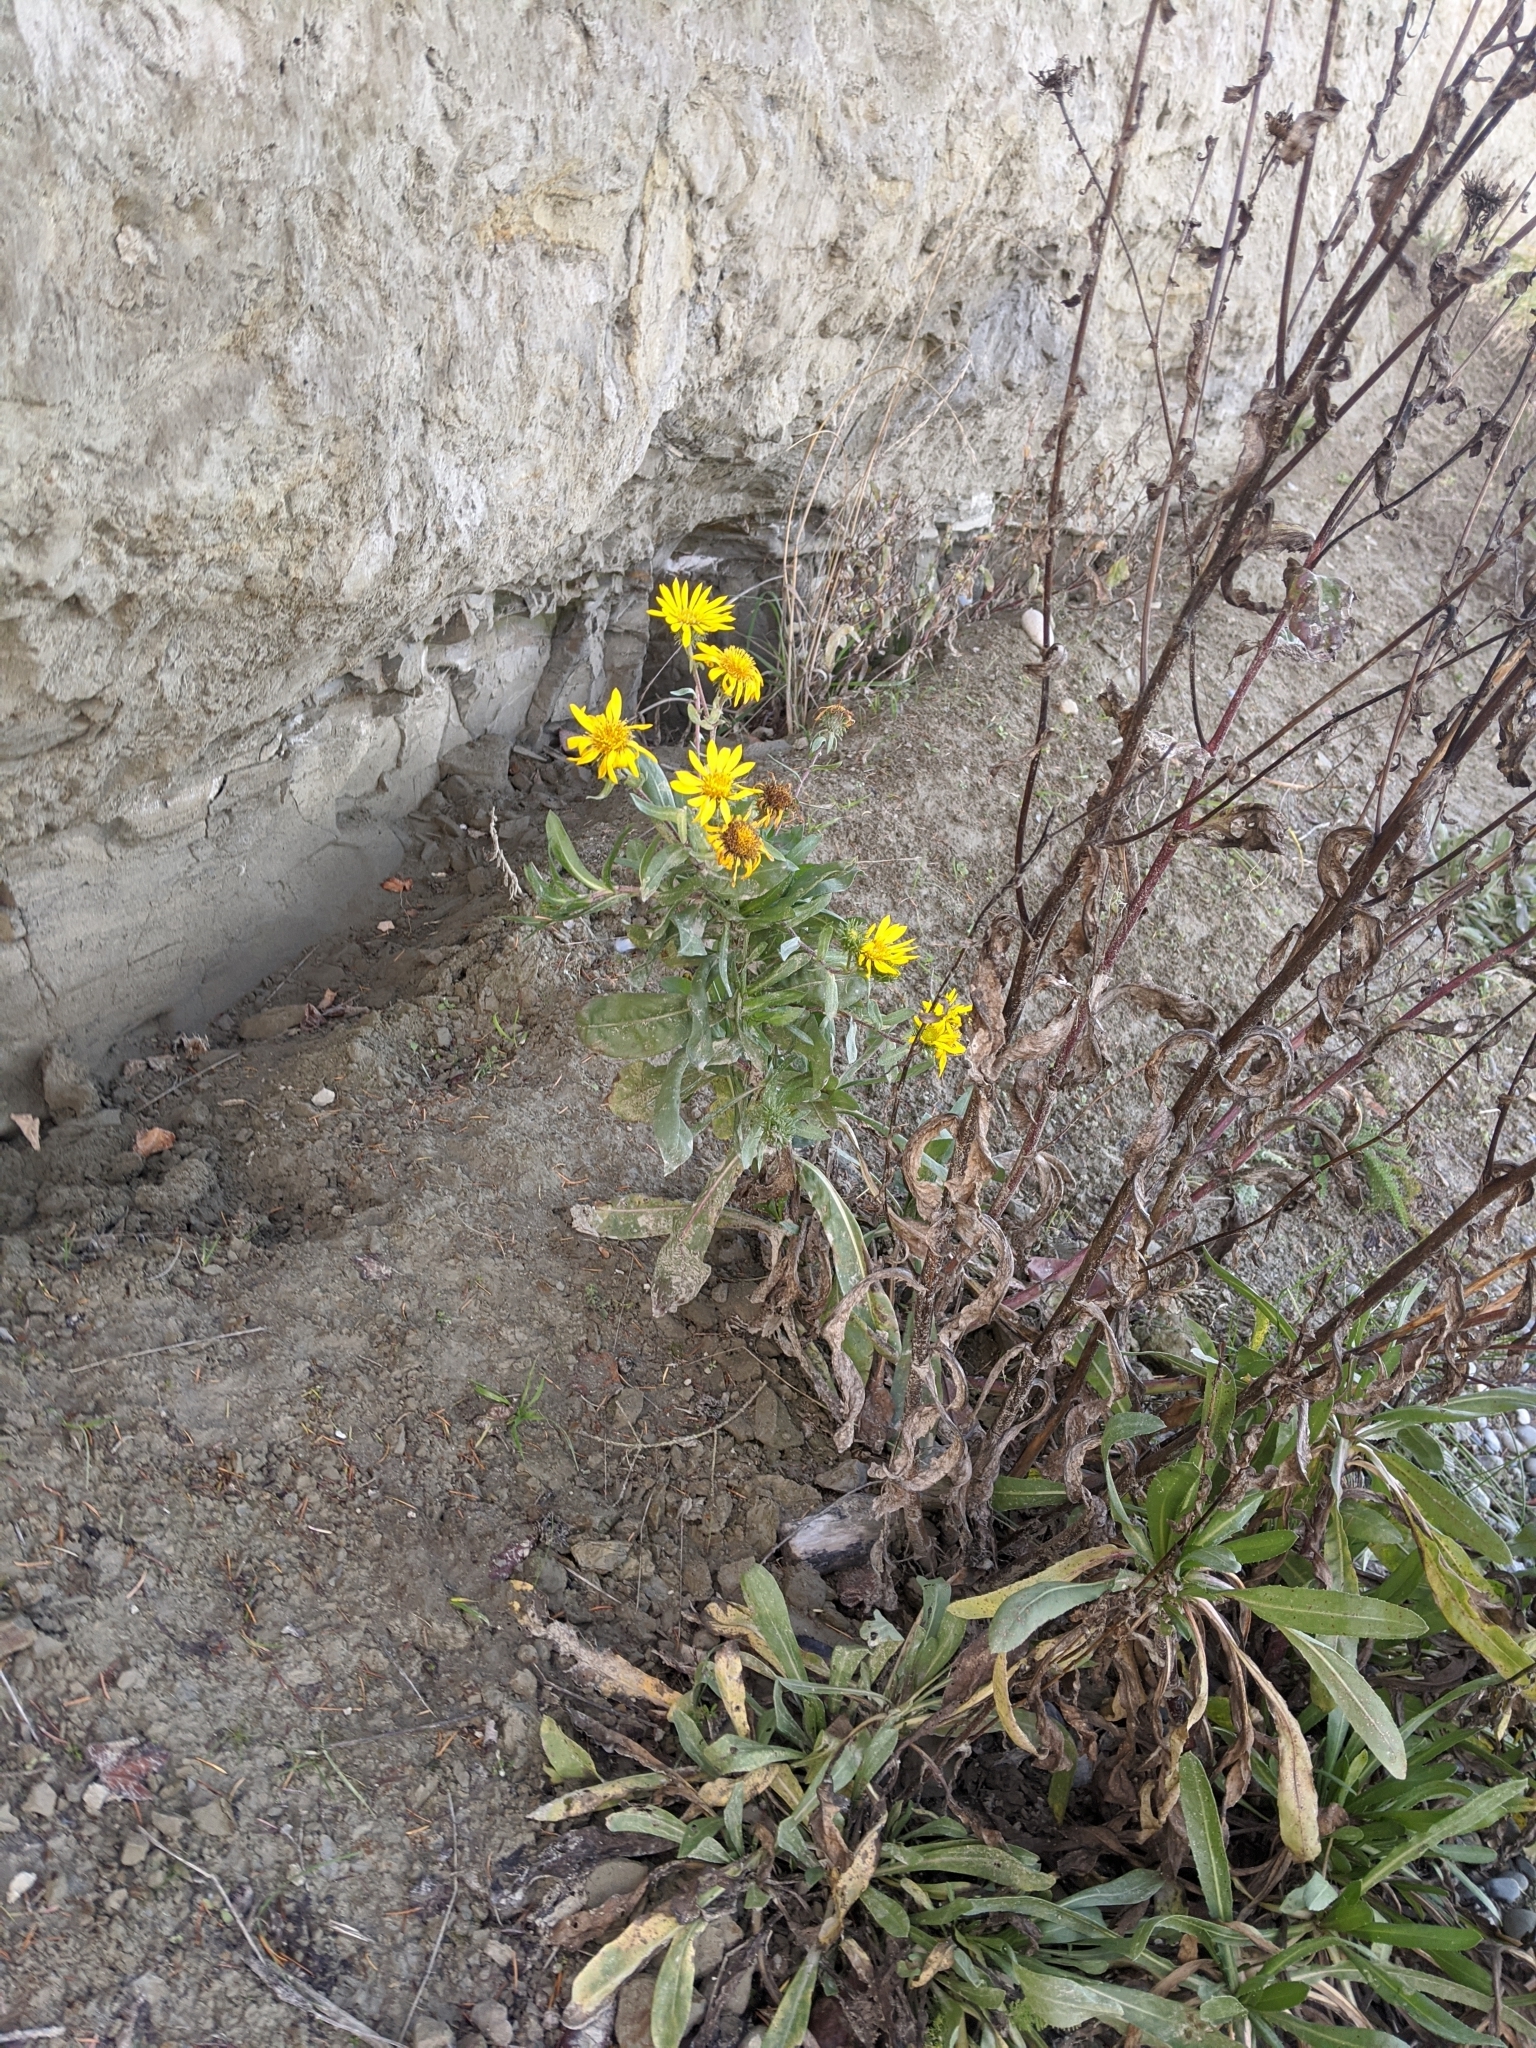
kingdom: Plantae
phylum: Tracheophyta
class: Magnoliopsida
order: Asterales
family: Asteraceae
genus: Grindelia
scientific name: Grindelia integrifolia
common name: Puget sound gumweed
